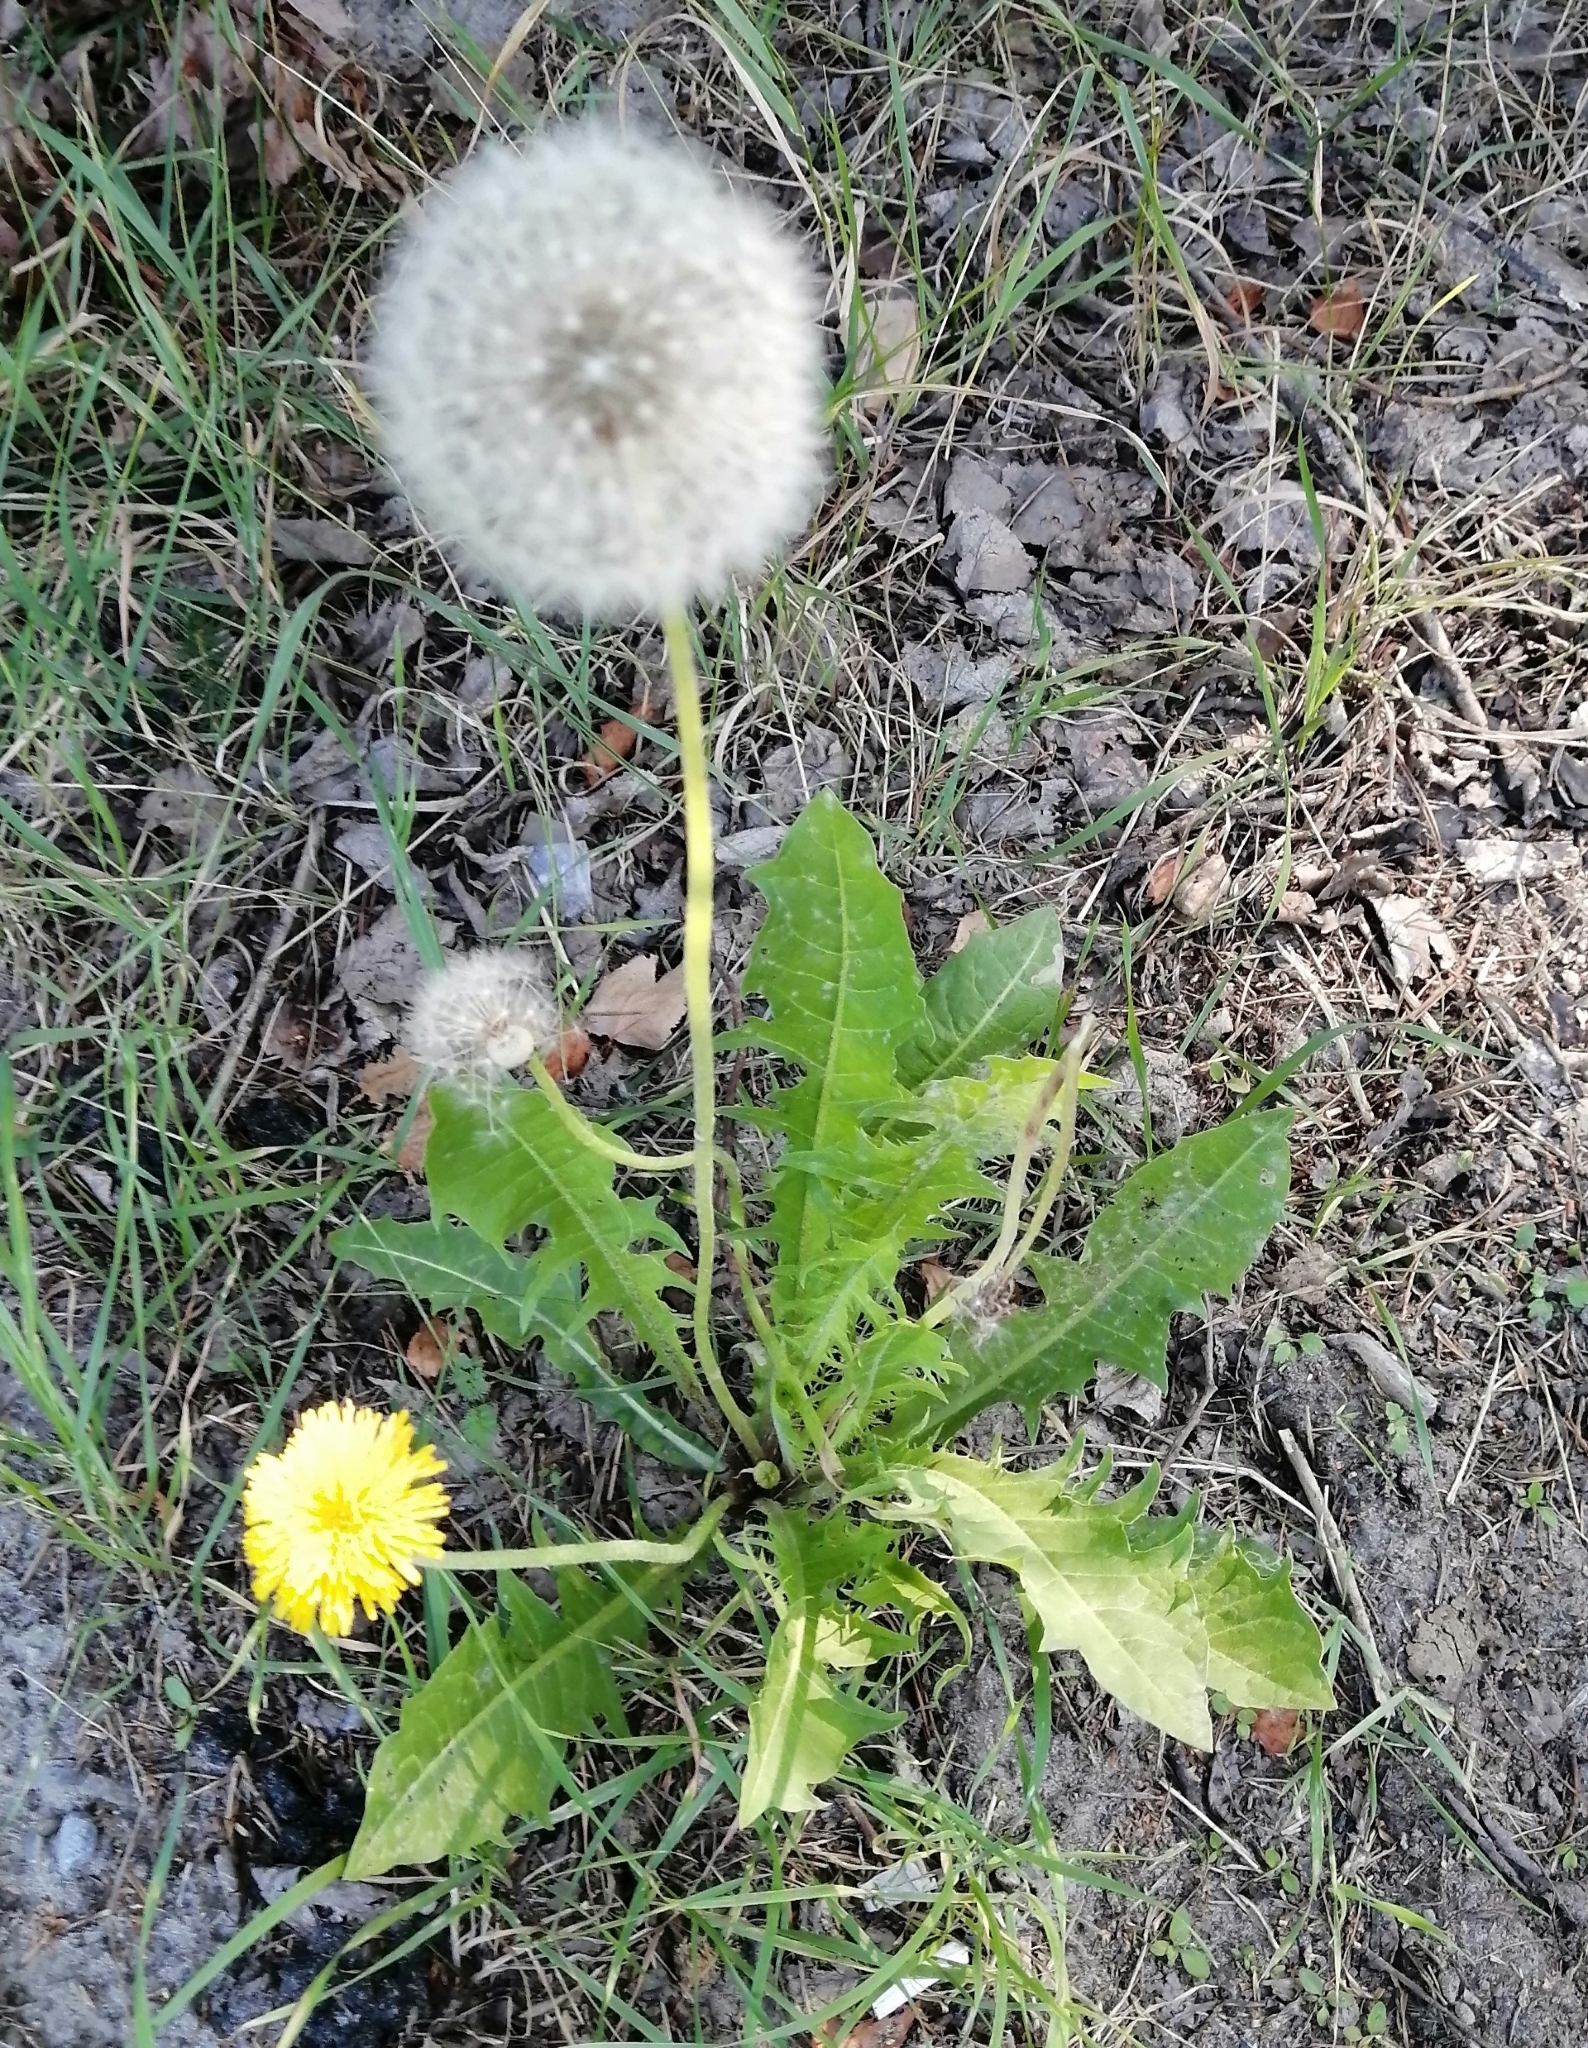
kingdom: Plantae
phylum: Tracheophyta
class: Magnoliopsida
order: Asterales
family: Asteraceae
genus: Taraxacum
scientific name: Taraxacum officinale
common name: Common dandelion
